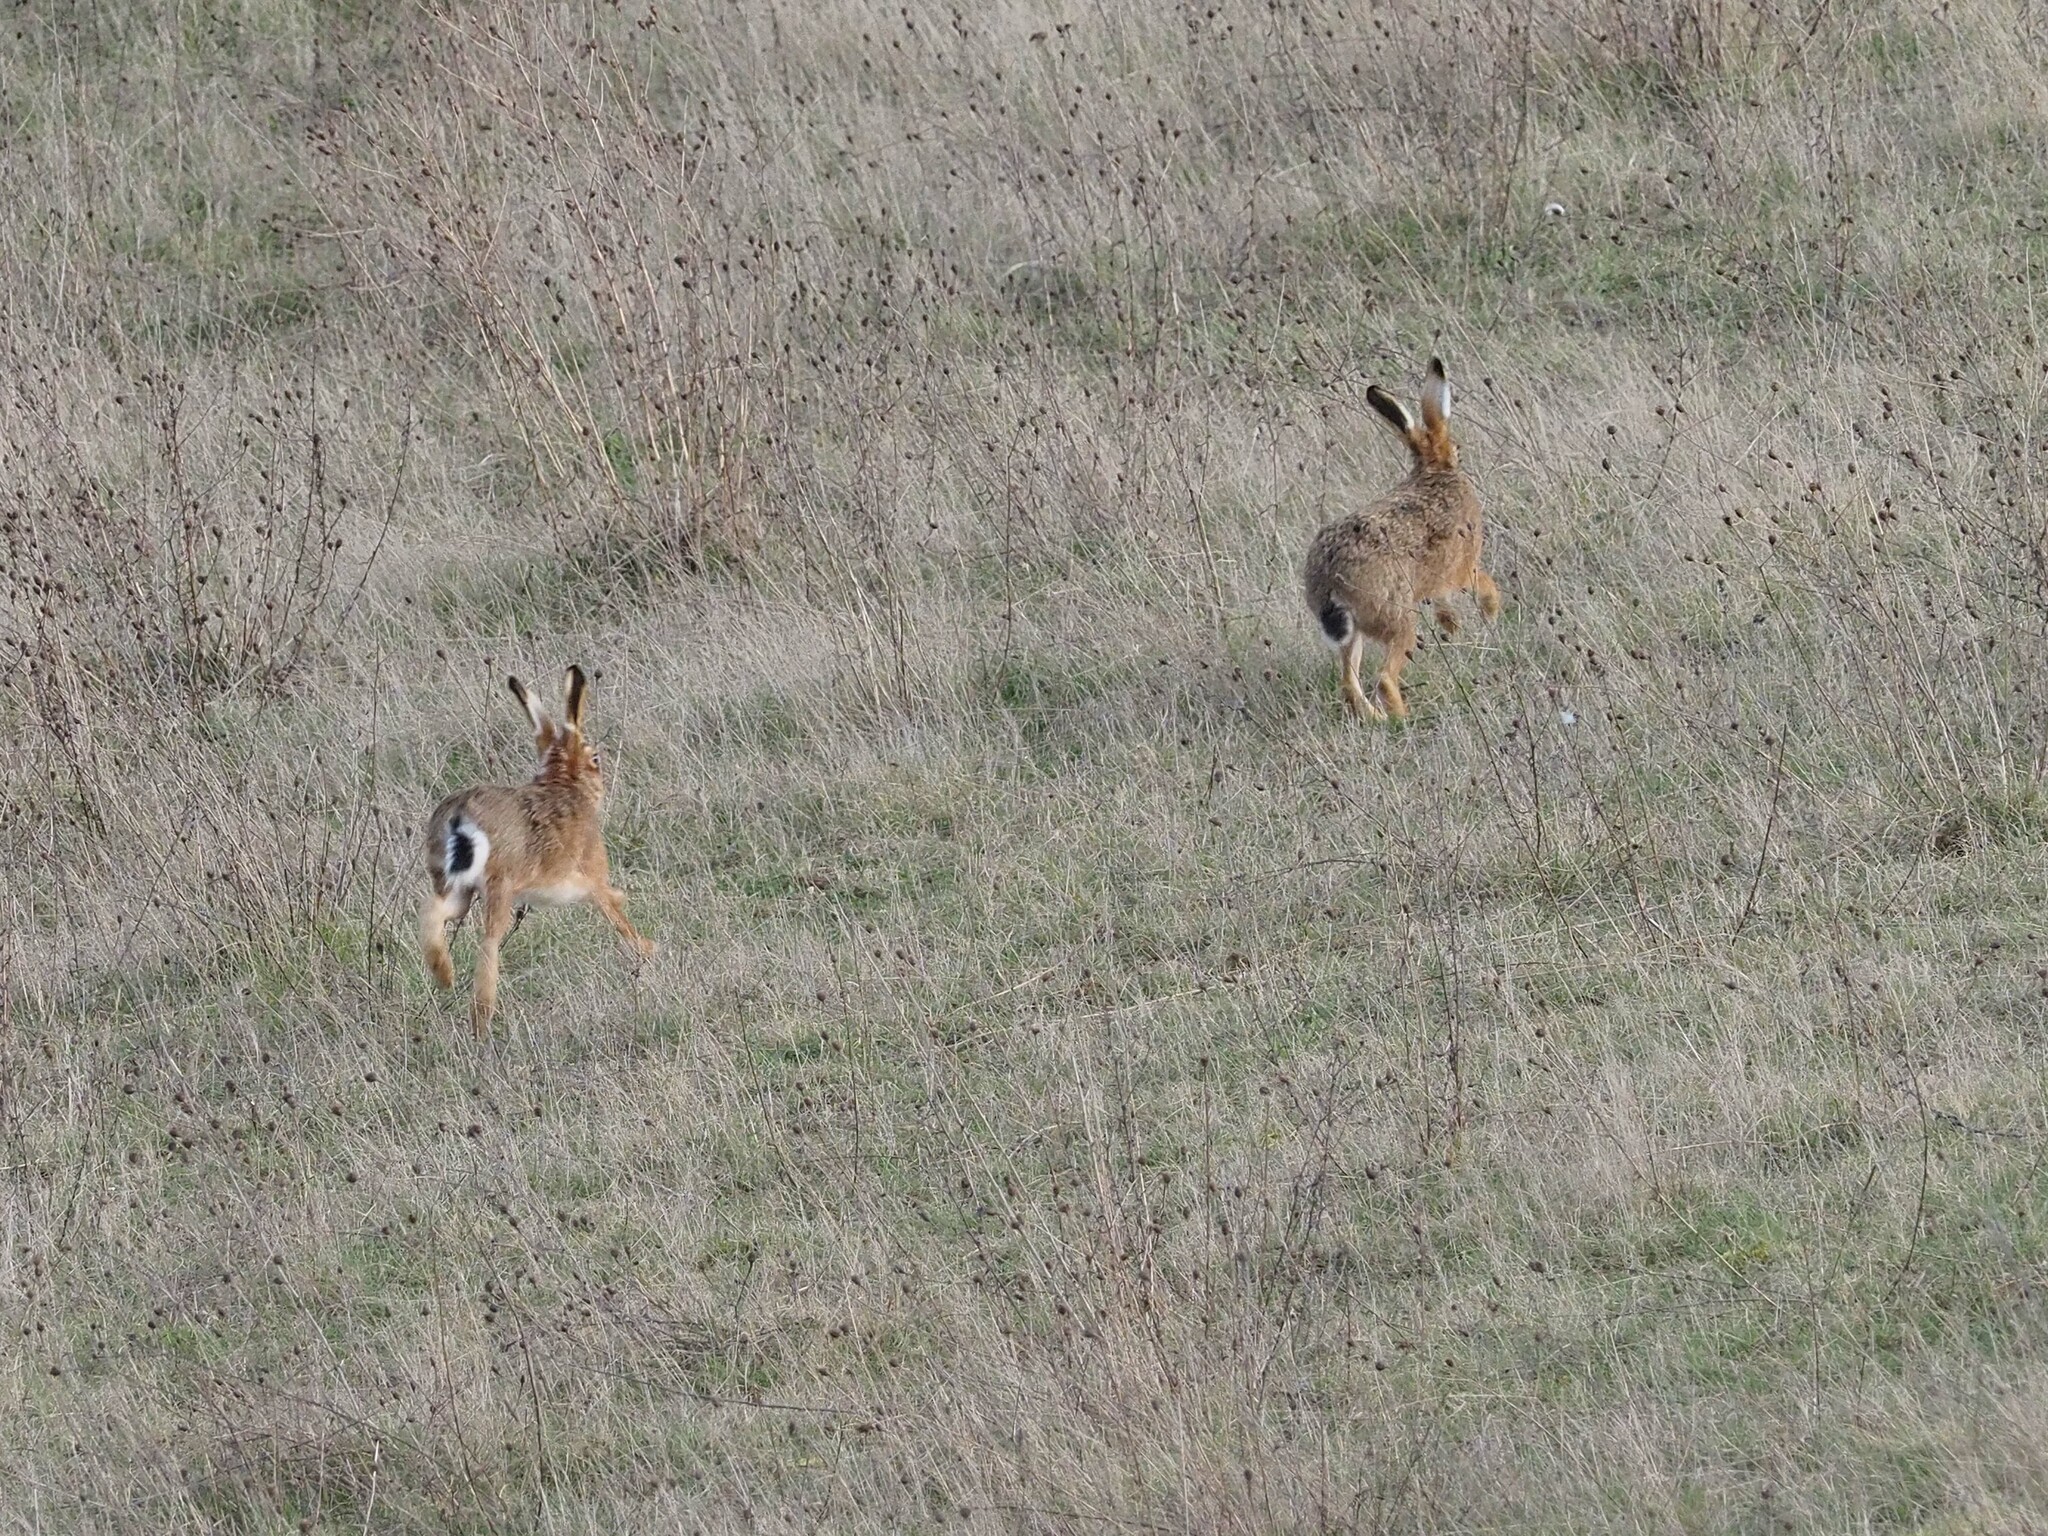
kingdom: Animalia
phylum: Chordata
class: Mammalia
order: Lagomorpha
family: Leporidae
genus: Lepus
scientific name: Lepus europaeus
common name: European hare
